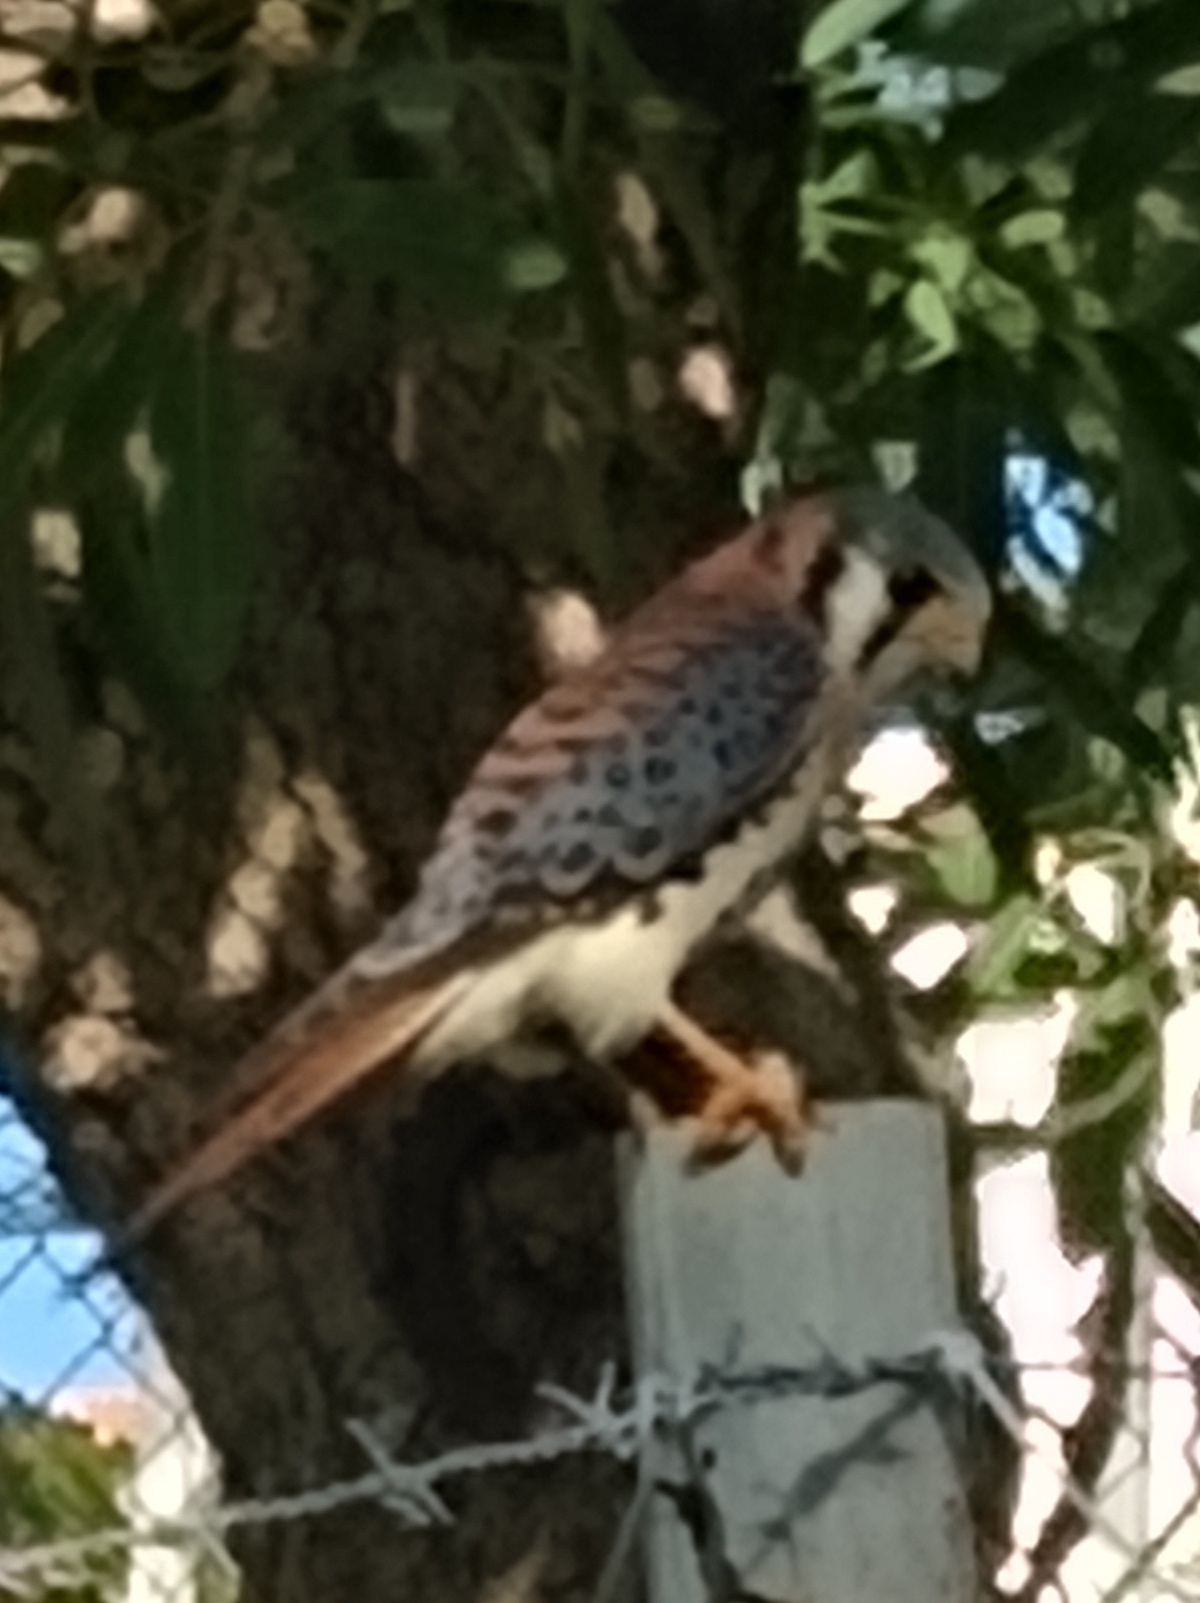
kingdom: Animalia
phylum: Chordata
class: Aves
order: Falconiformes
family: Falconidae
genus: Falco
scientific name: Falco sparverius
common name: American kestrel
